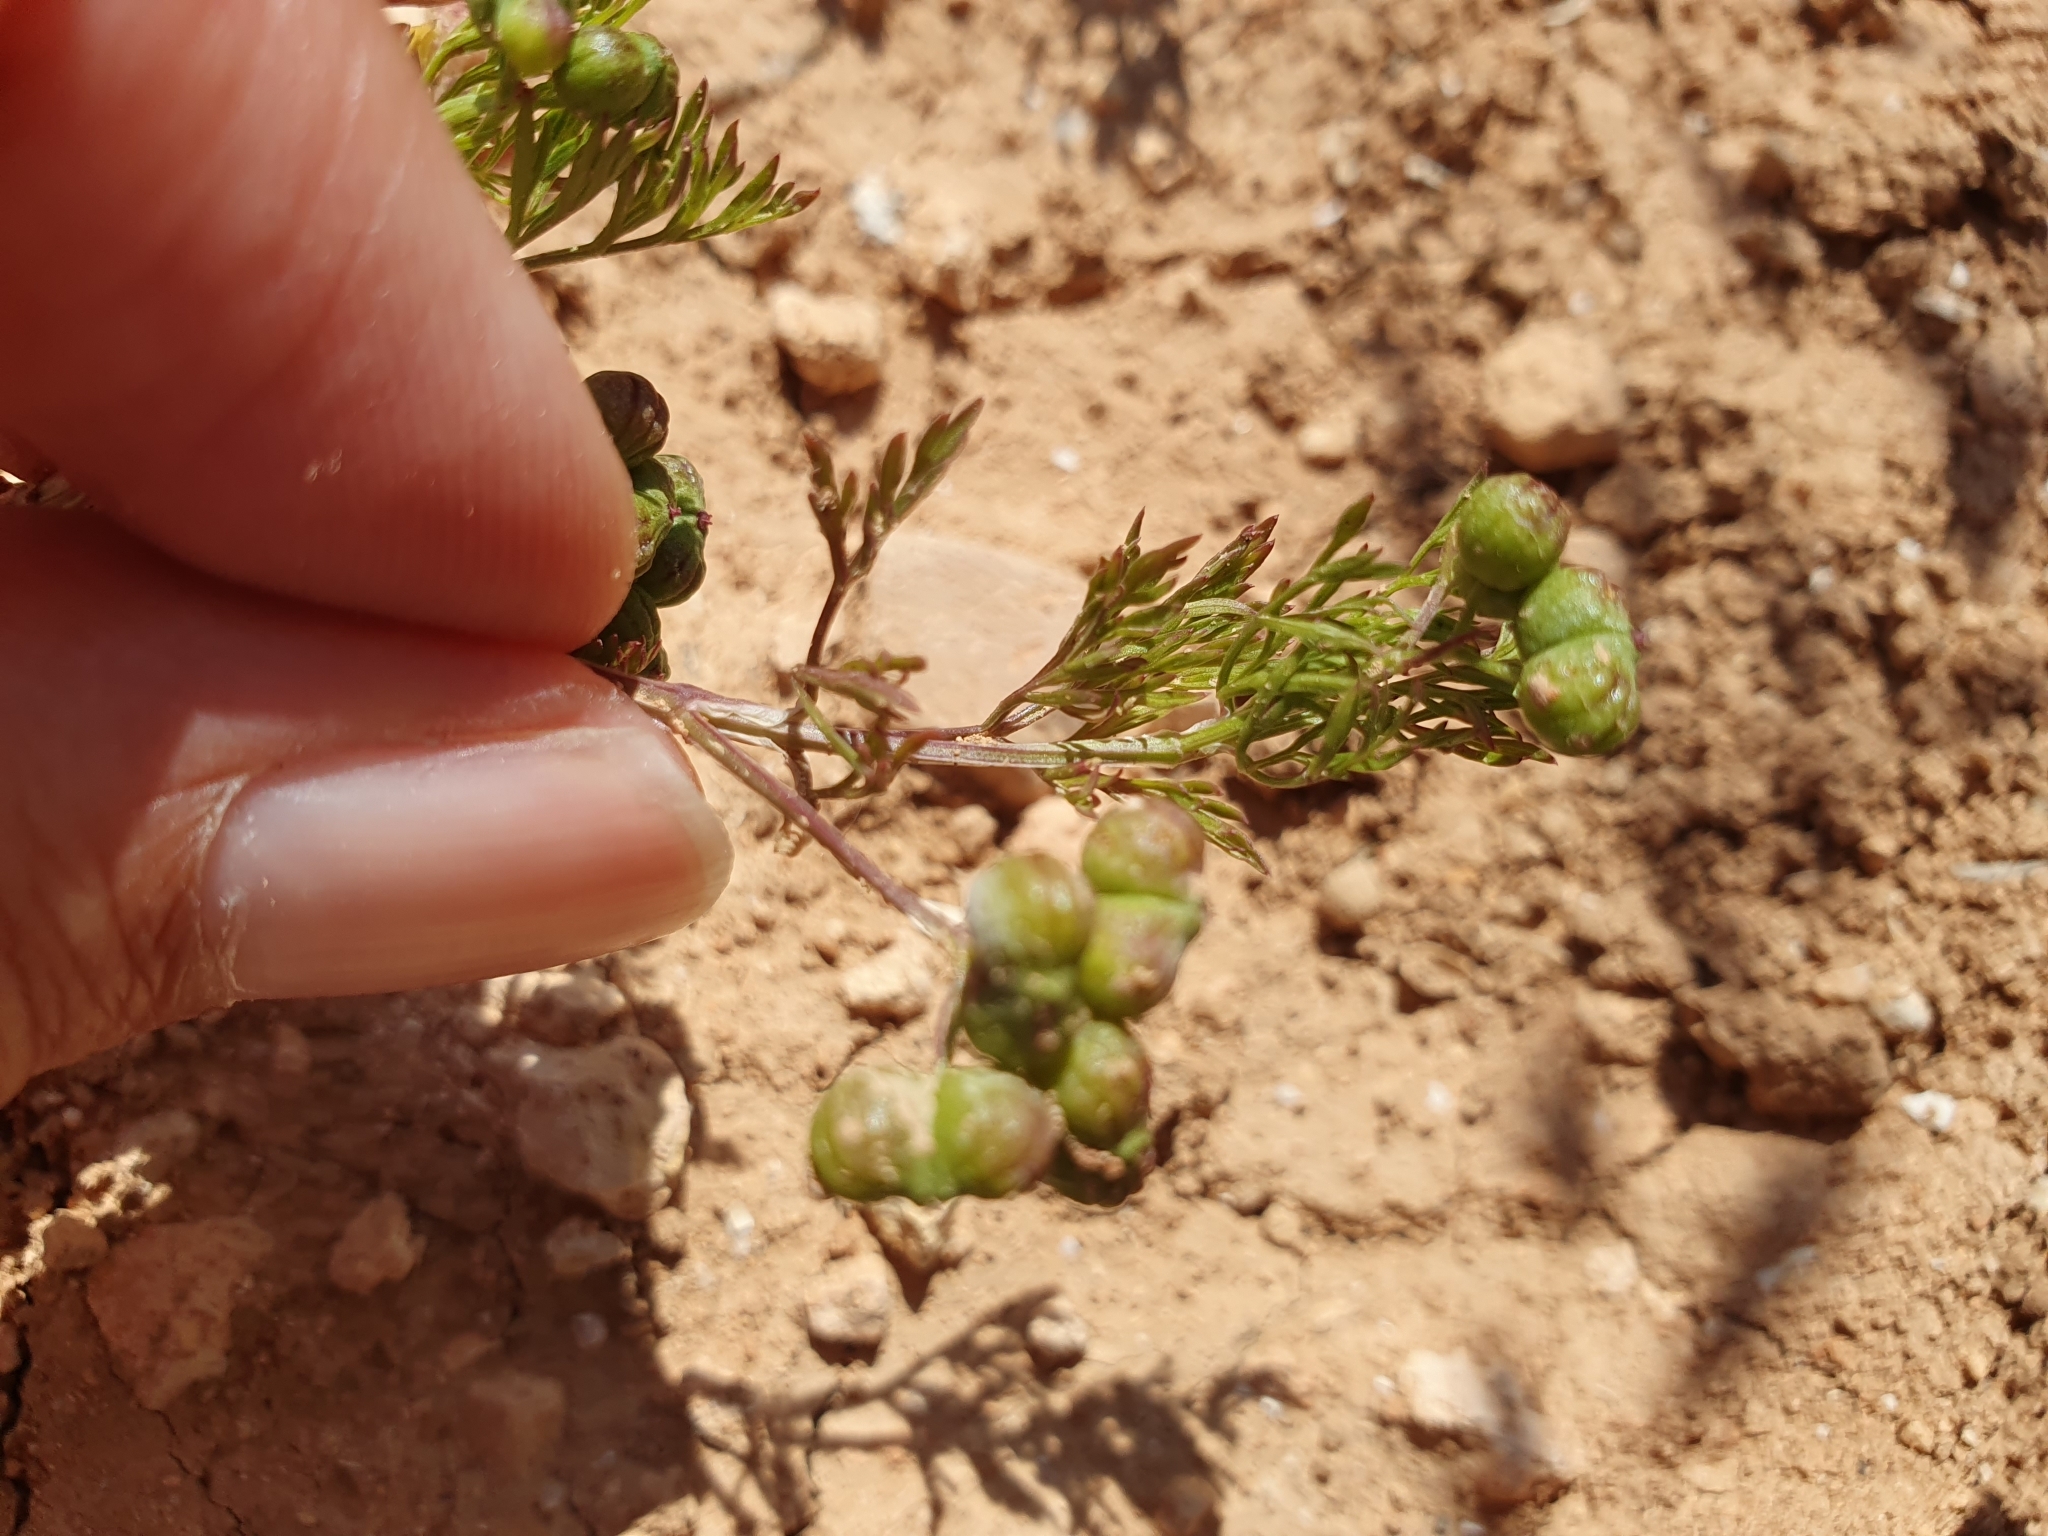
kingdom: Plantae
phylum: Tracheophyta
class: Magnoliopsida
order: Apiales
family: Apiaceae
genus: Bifora
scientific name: Bifora testiculata
